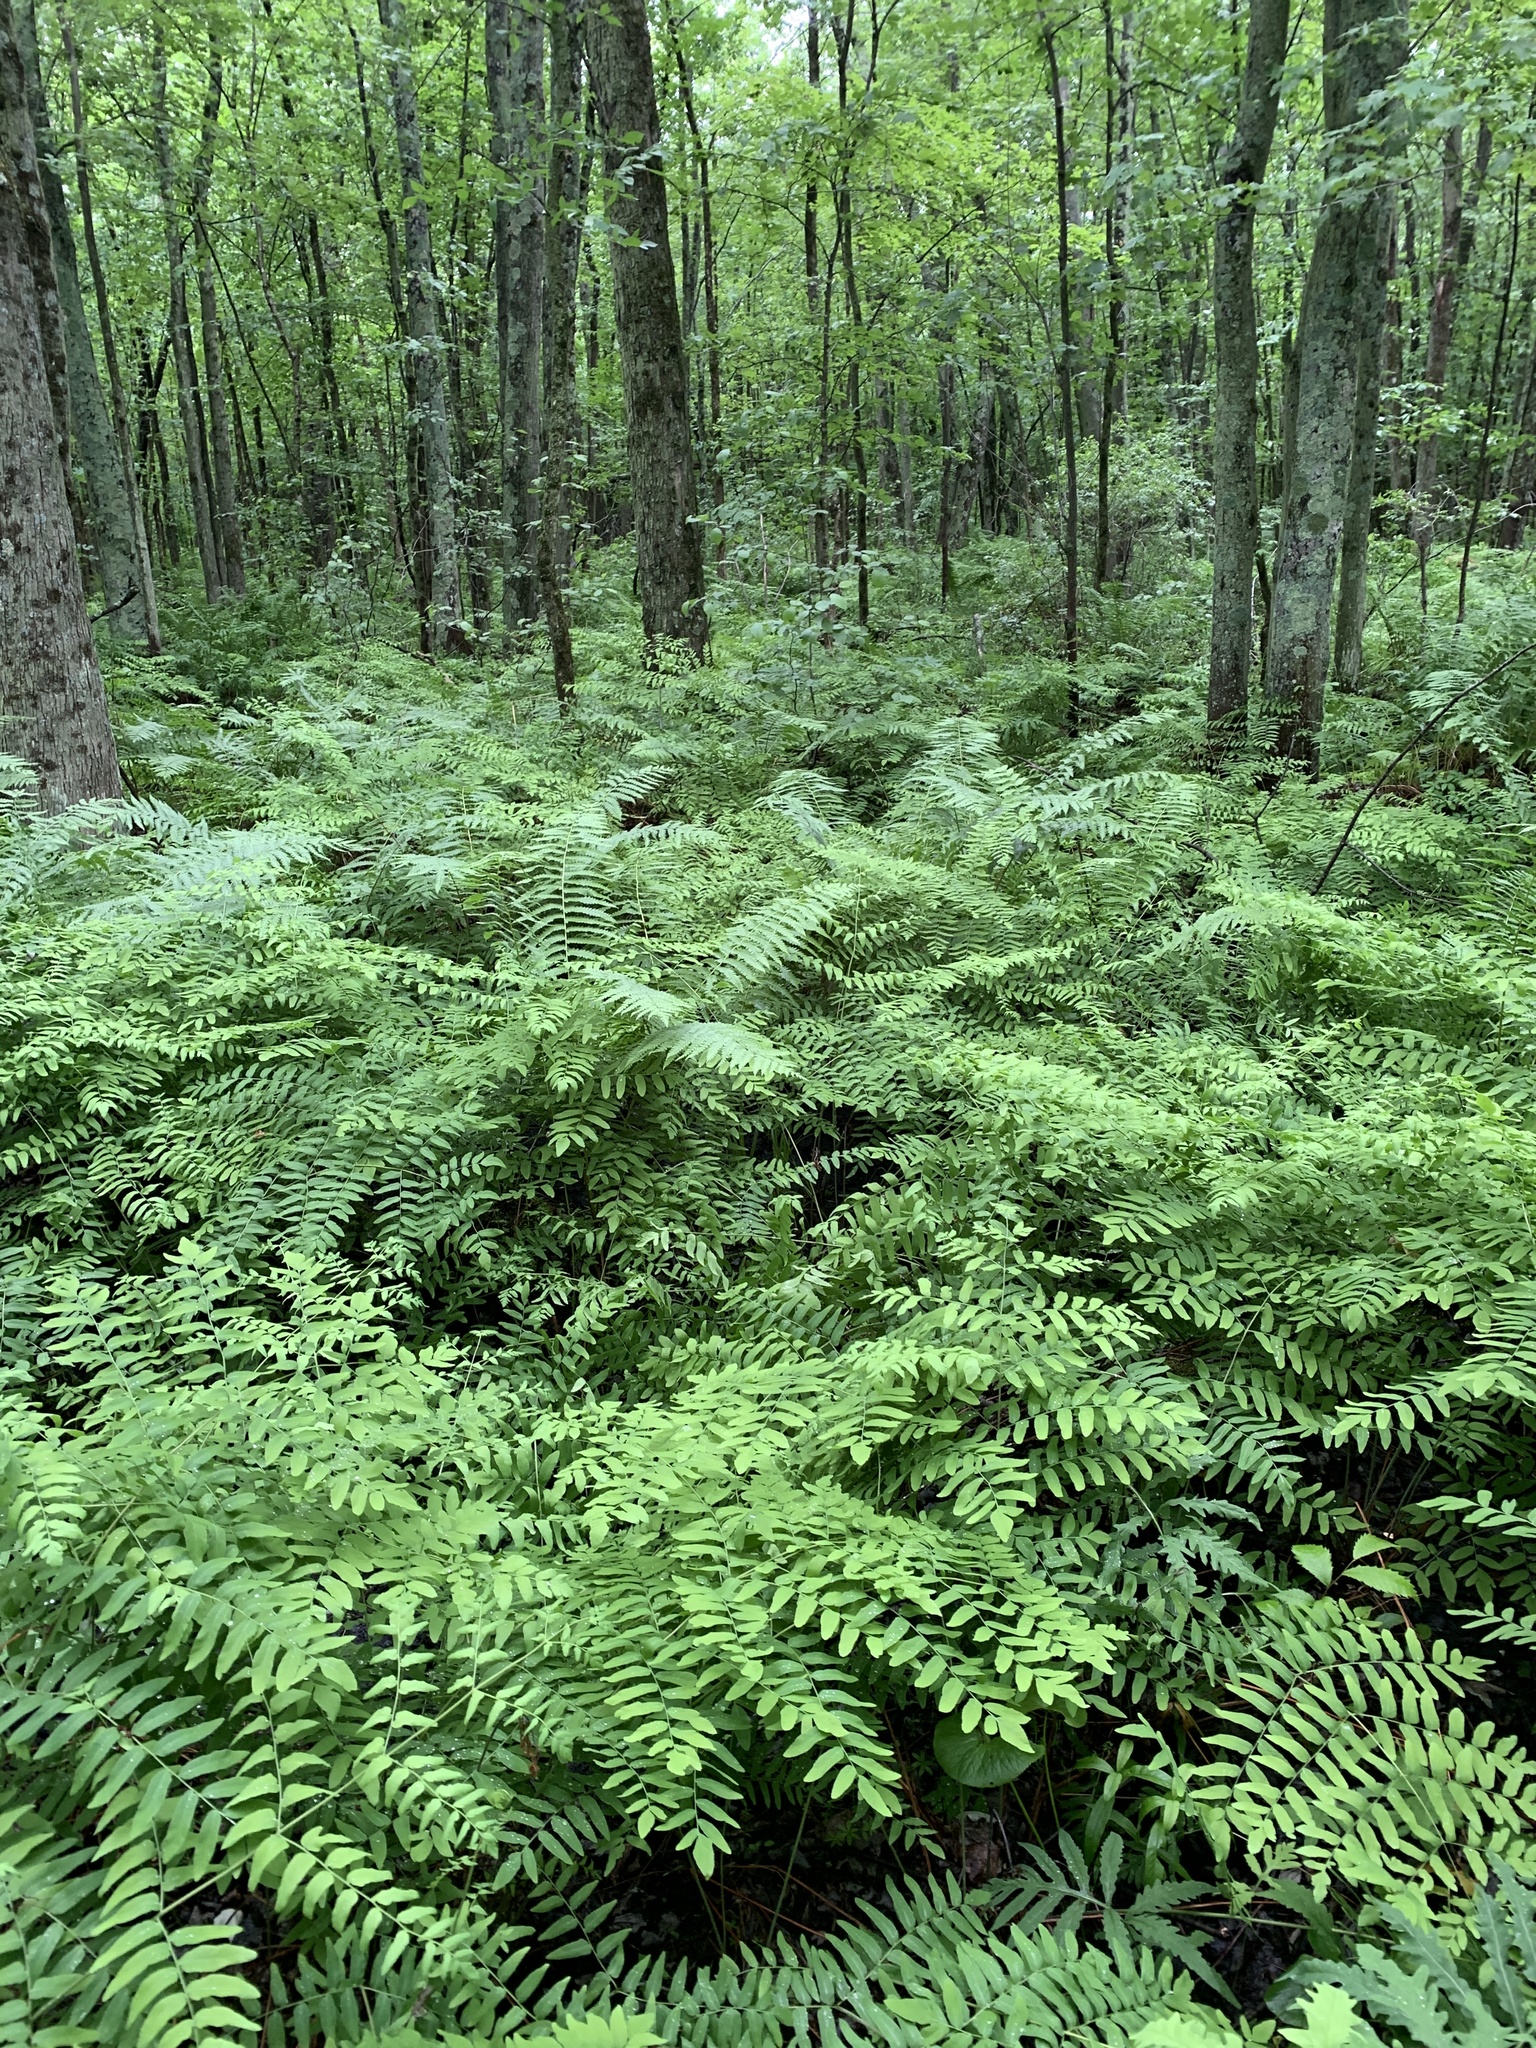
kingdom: Plantae
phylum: Tracheophyta
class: Polypodiopsida
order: Osmundales
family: Osmundaceae
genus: Osmunda
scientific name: Osmunda spectabilis
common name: American royal fern
